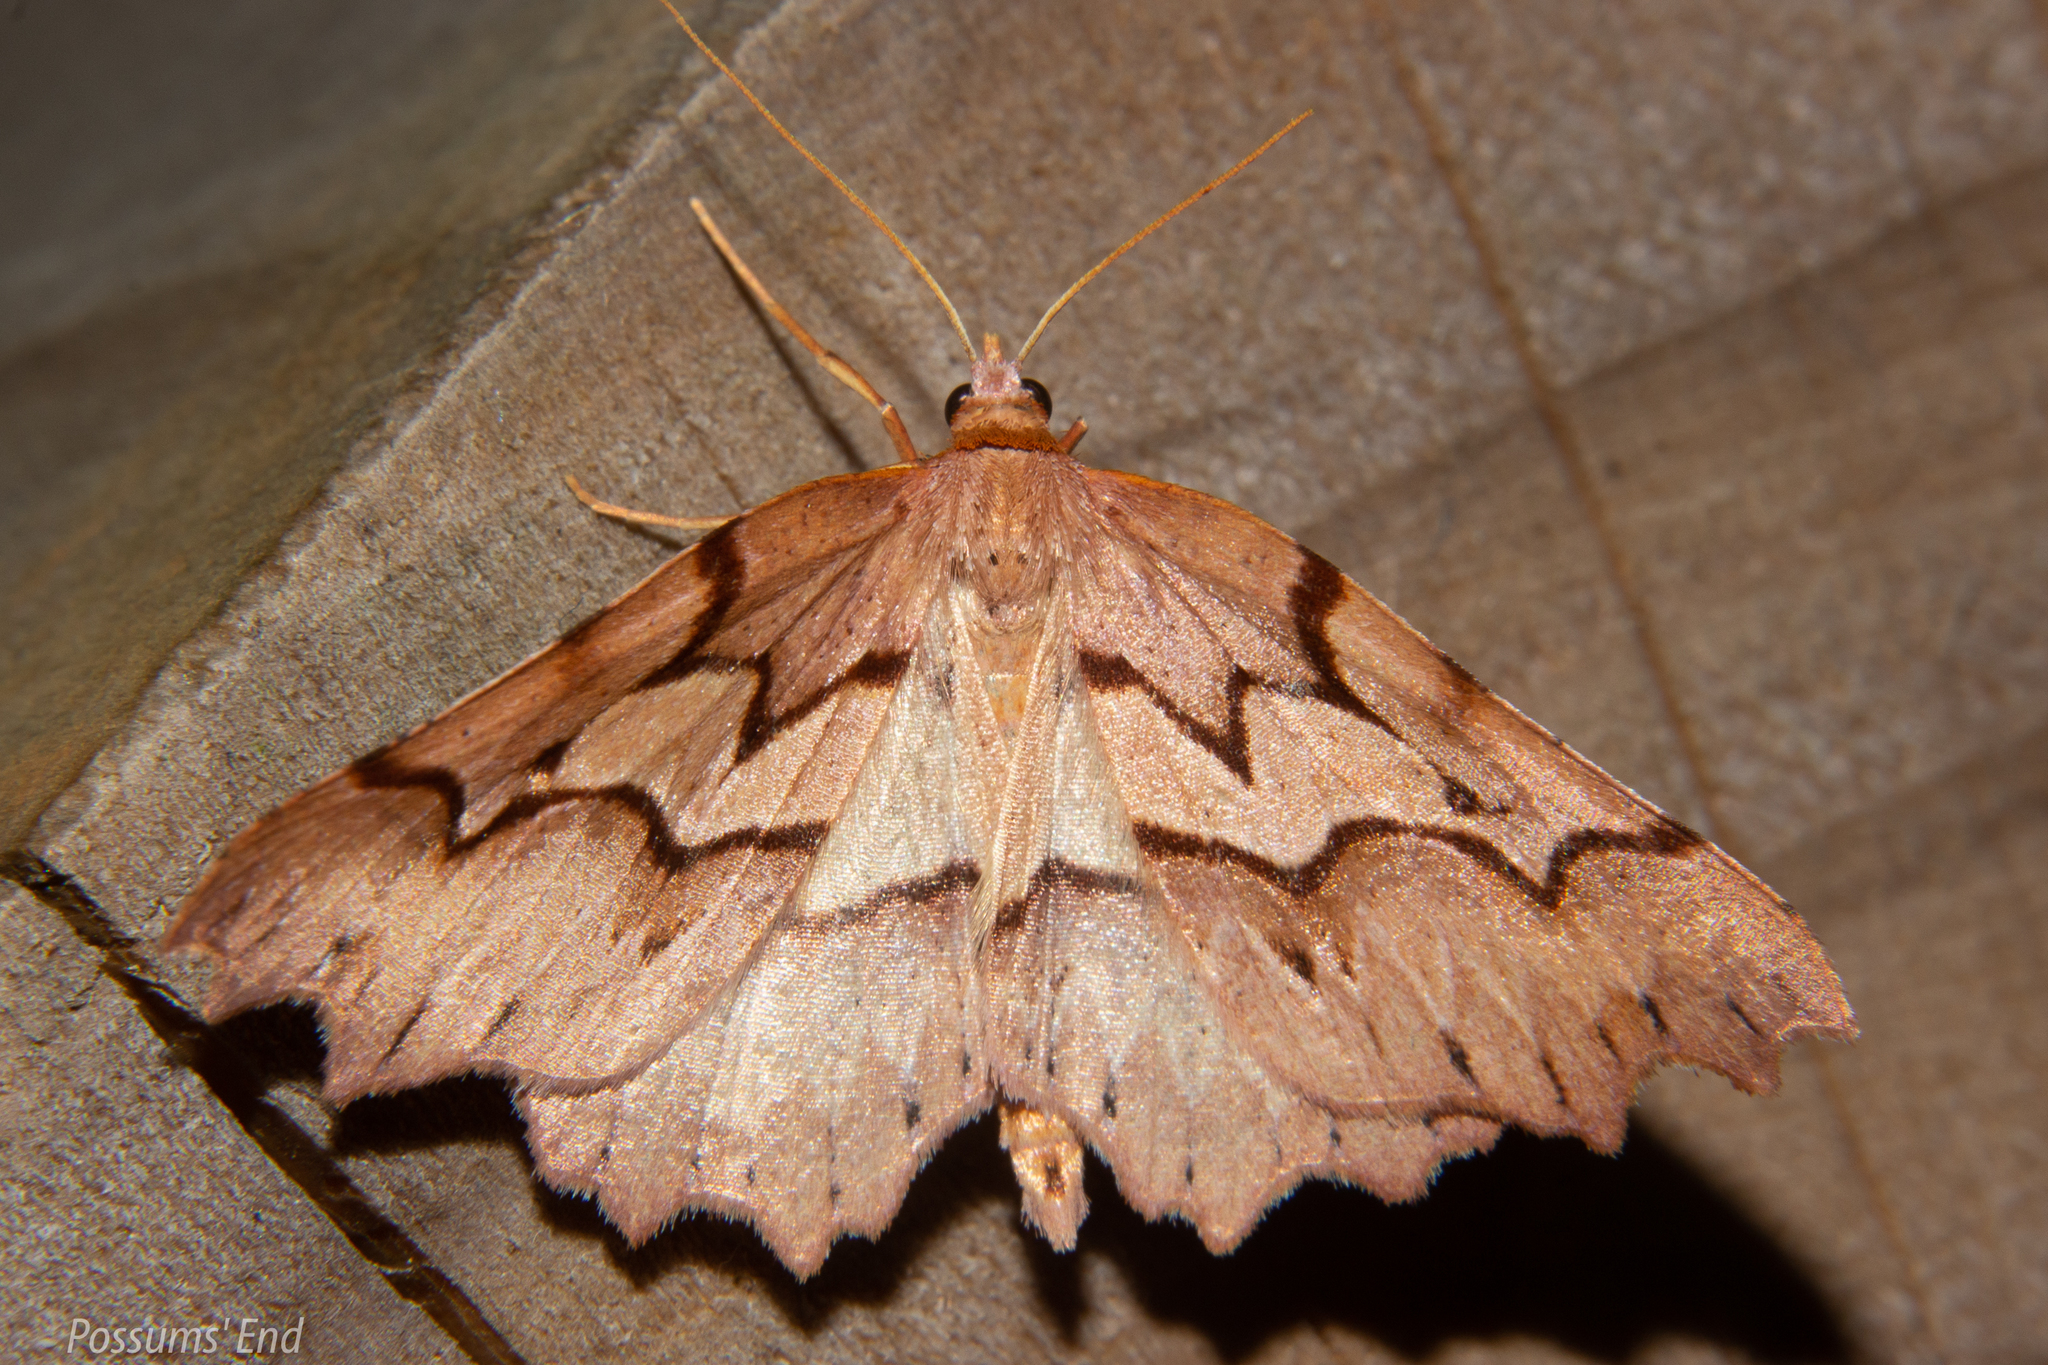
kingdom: Animalia
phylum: Arthropoda
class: Insecta
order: Lepidoptera
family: Geometridae
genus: Ischalis
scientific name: Ischalis fortinata
